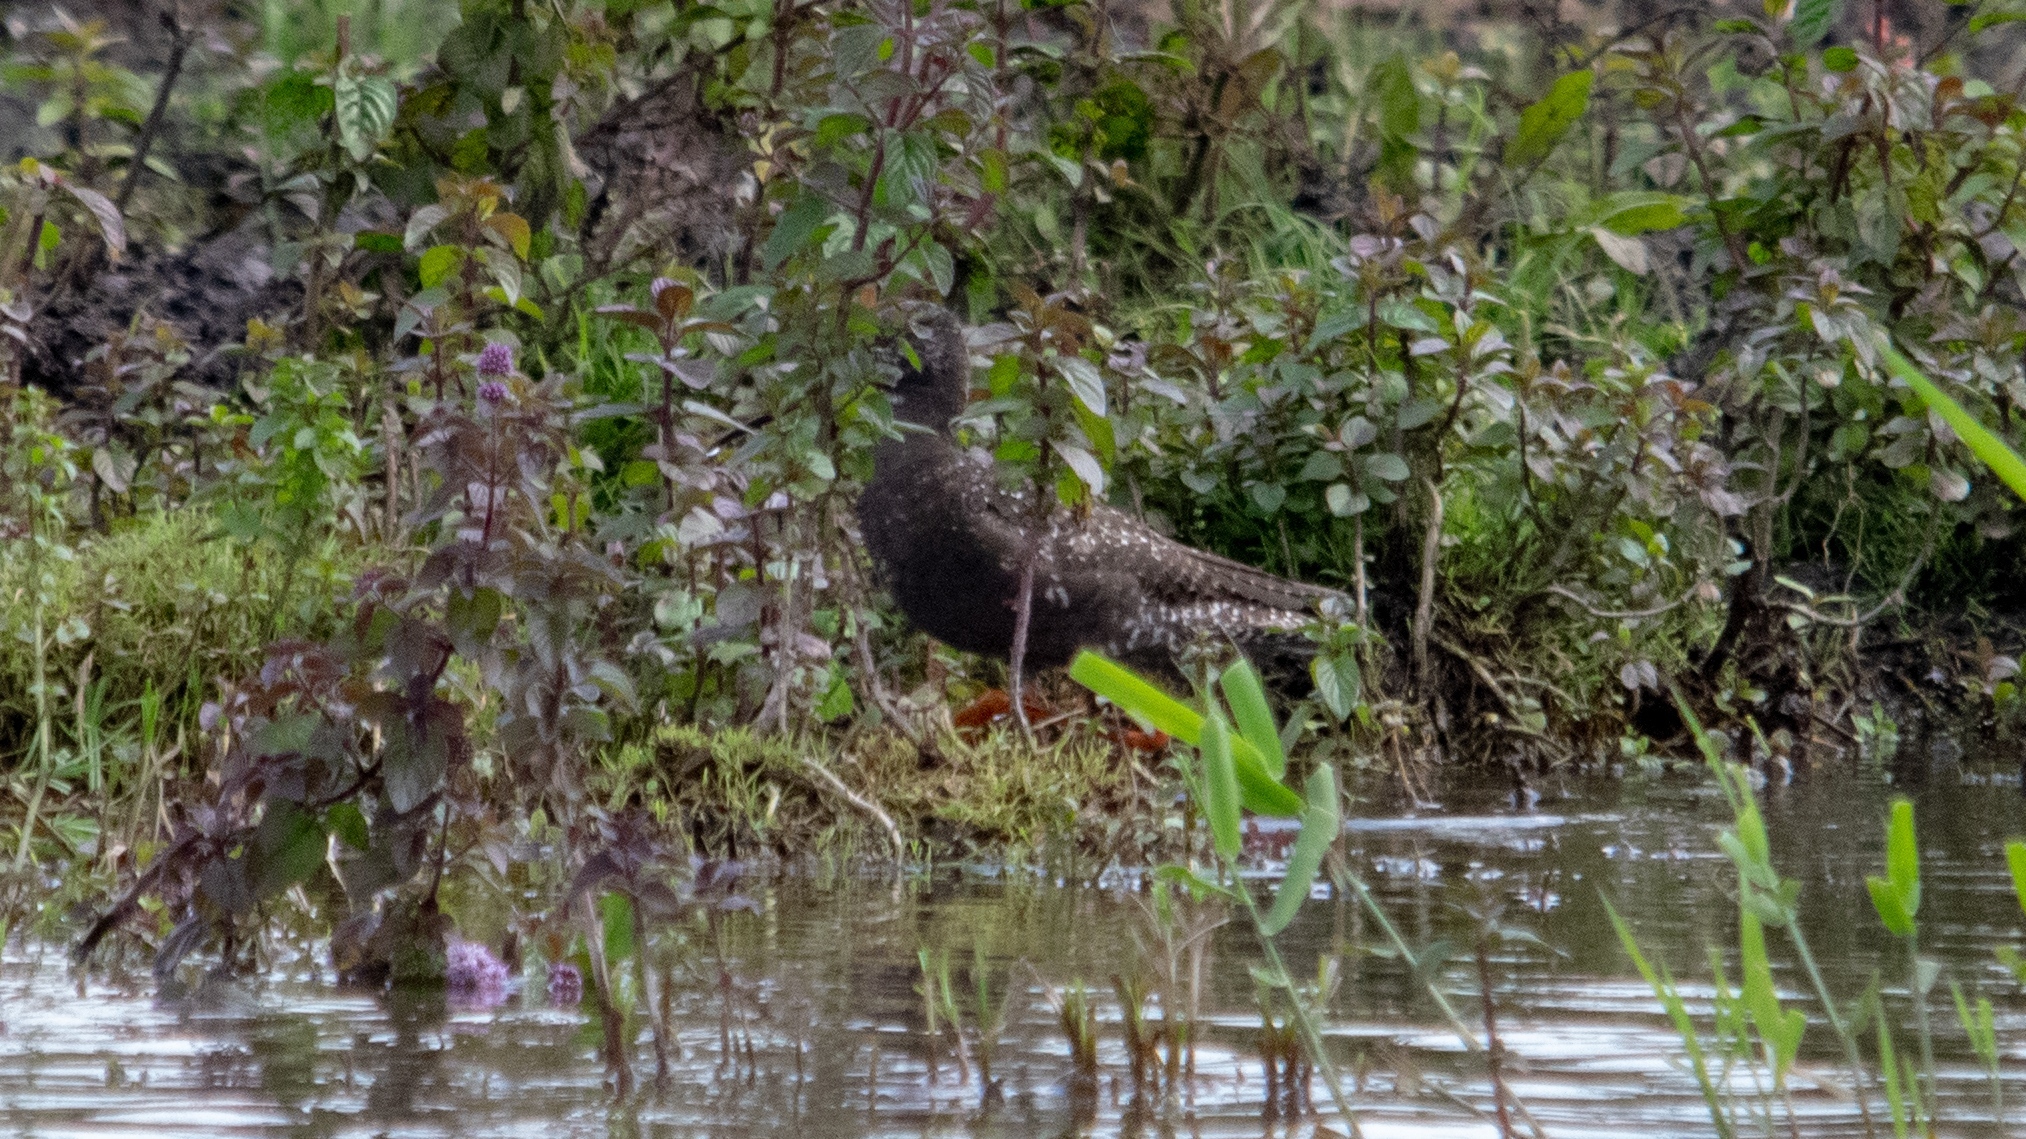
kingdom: Animalia
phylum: Chordata
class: Aves
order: Charadriiformes
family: Scolopacidae
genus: Tringa
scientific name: Tringa erythropus
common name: Spotted redshank
